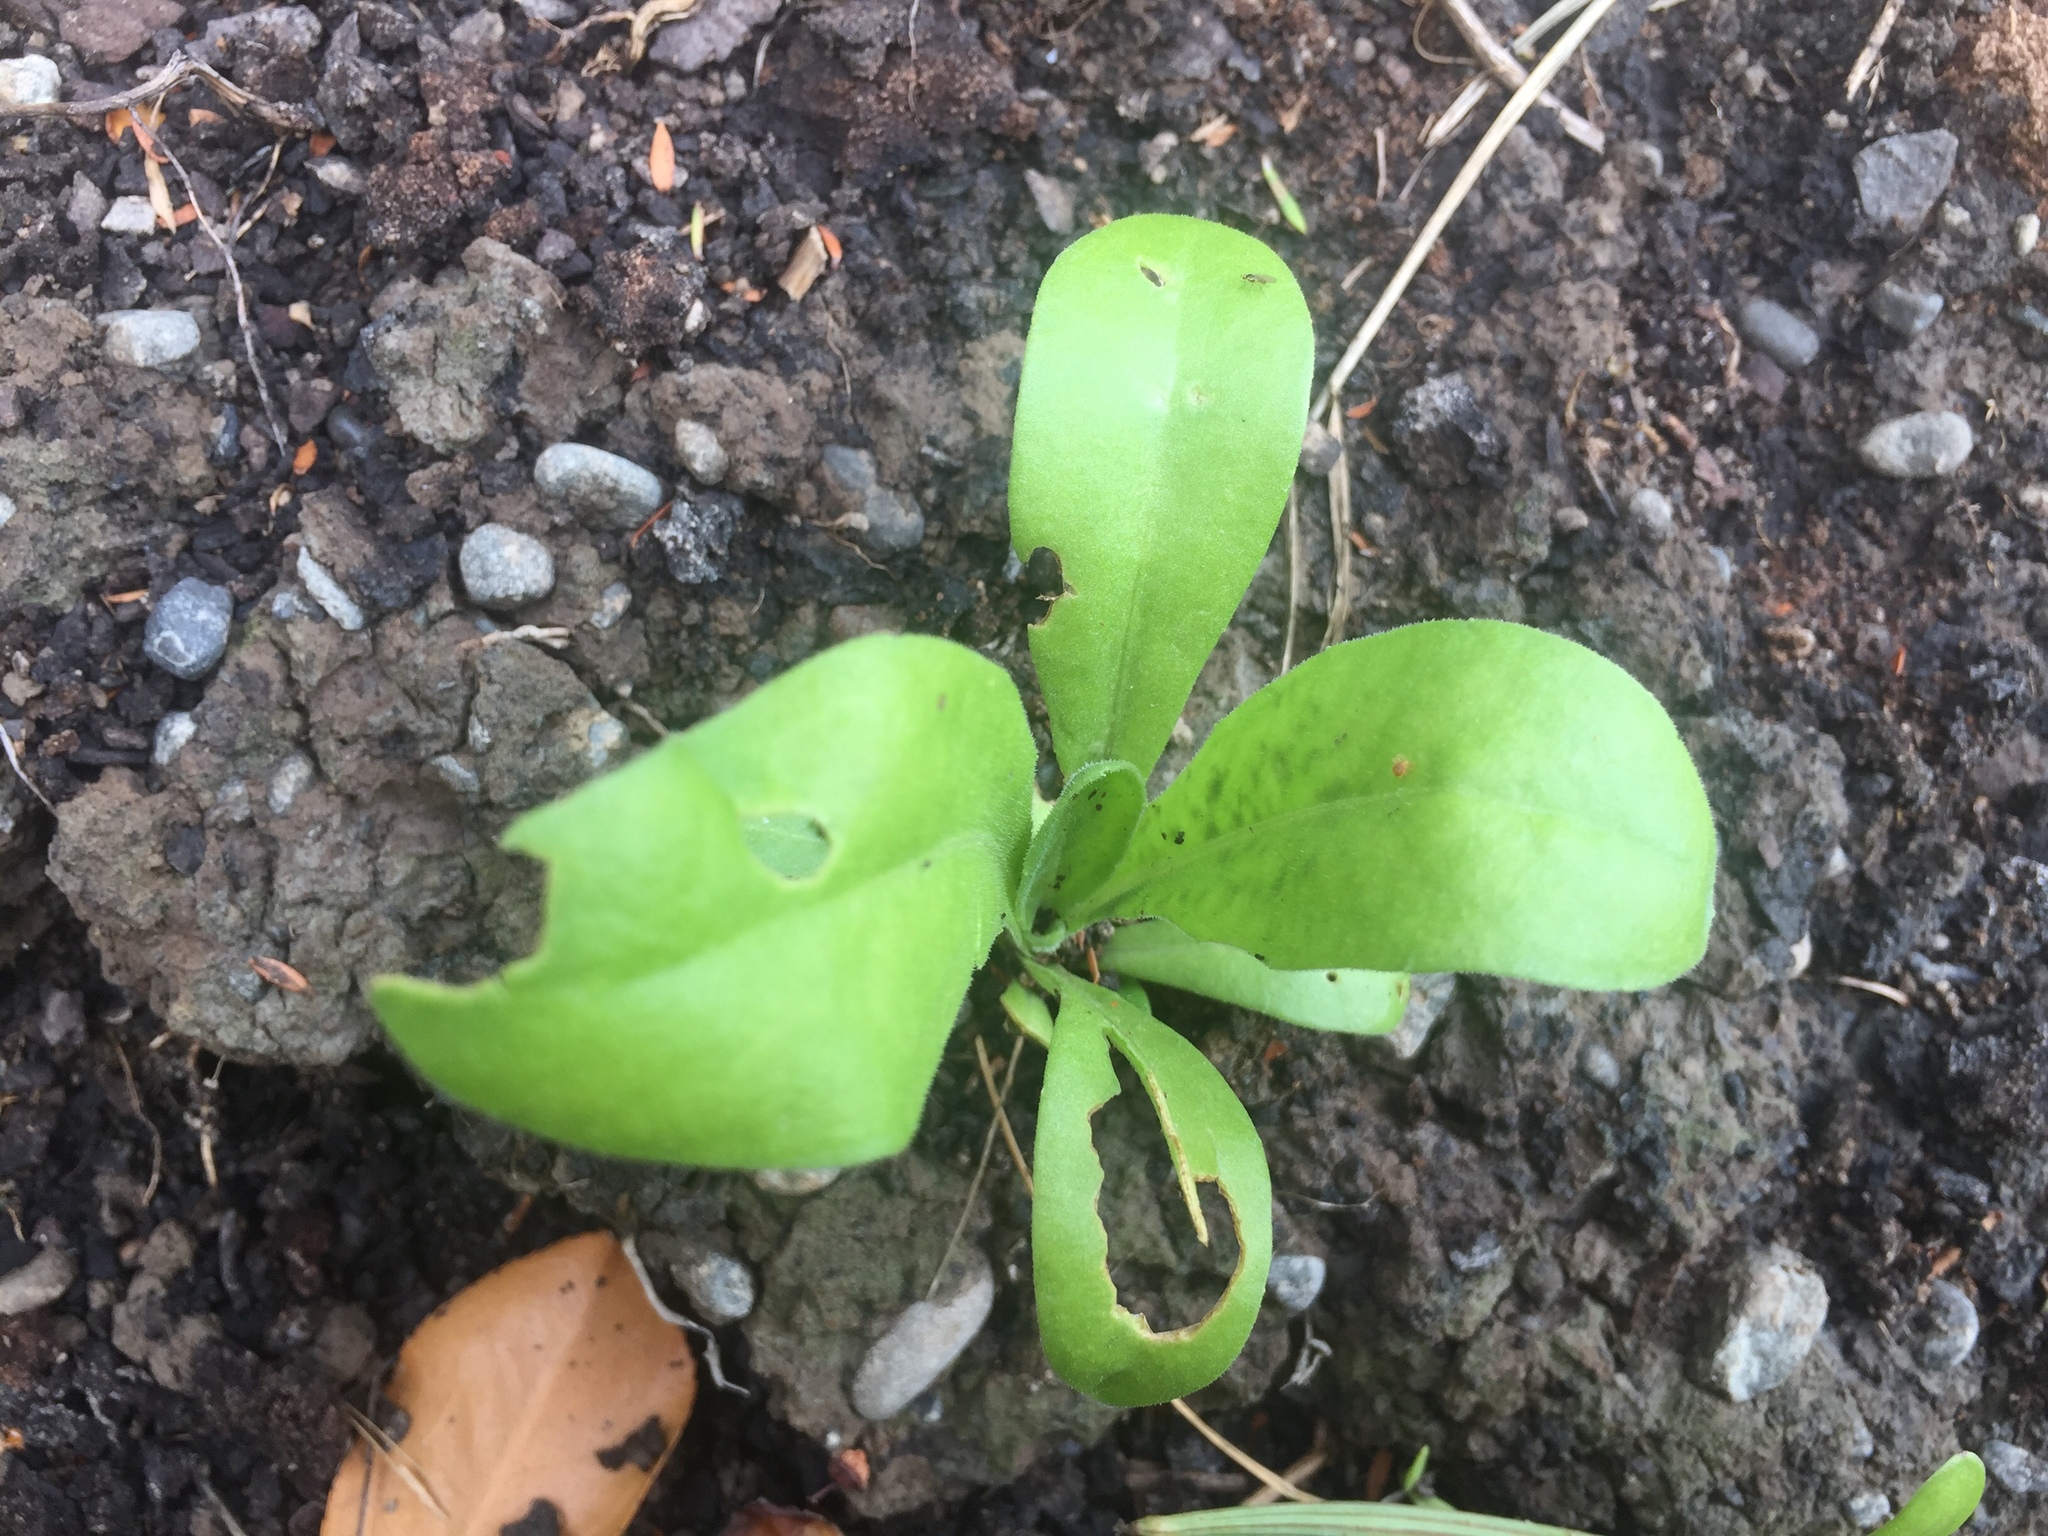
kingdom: Plantae
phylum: Tracheophyta
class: Magnoliopsida
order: Asterales
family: Asteraceae
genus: Calendula
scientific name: Calendula officinalis
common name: Pot marigold
